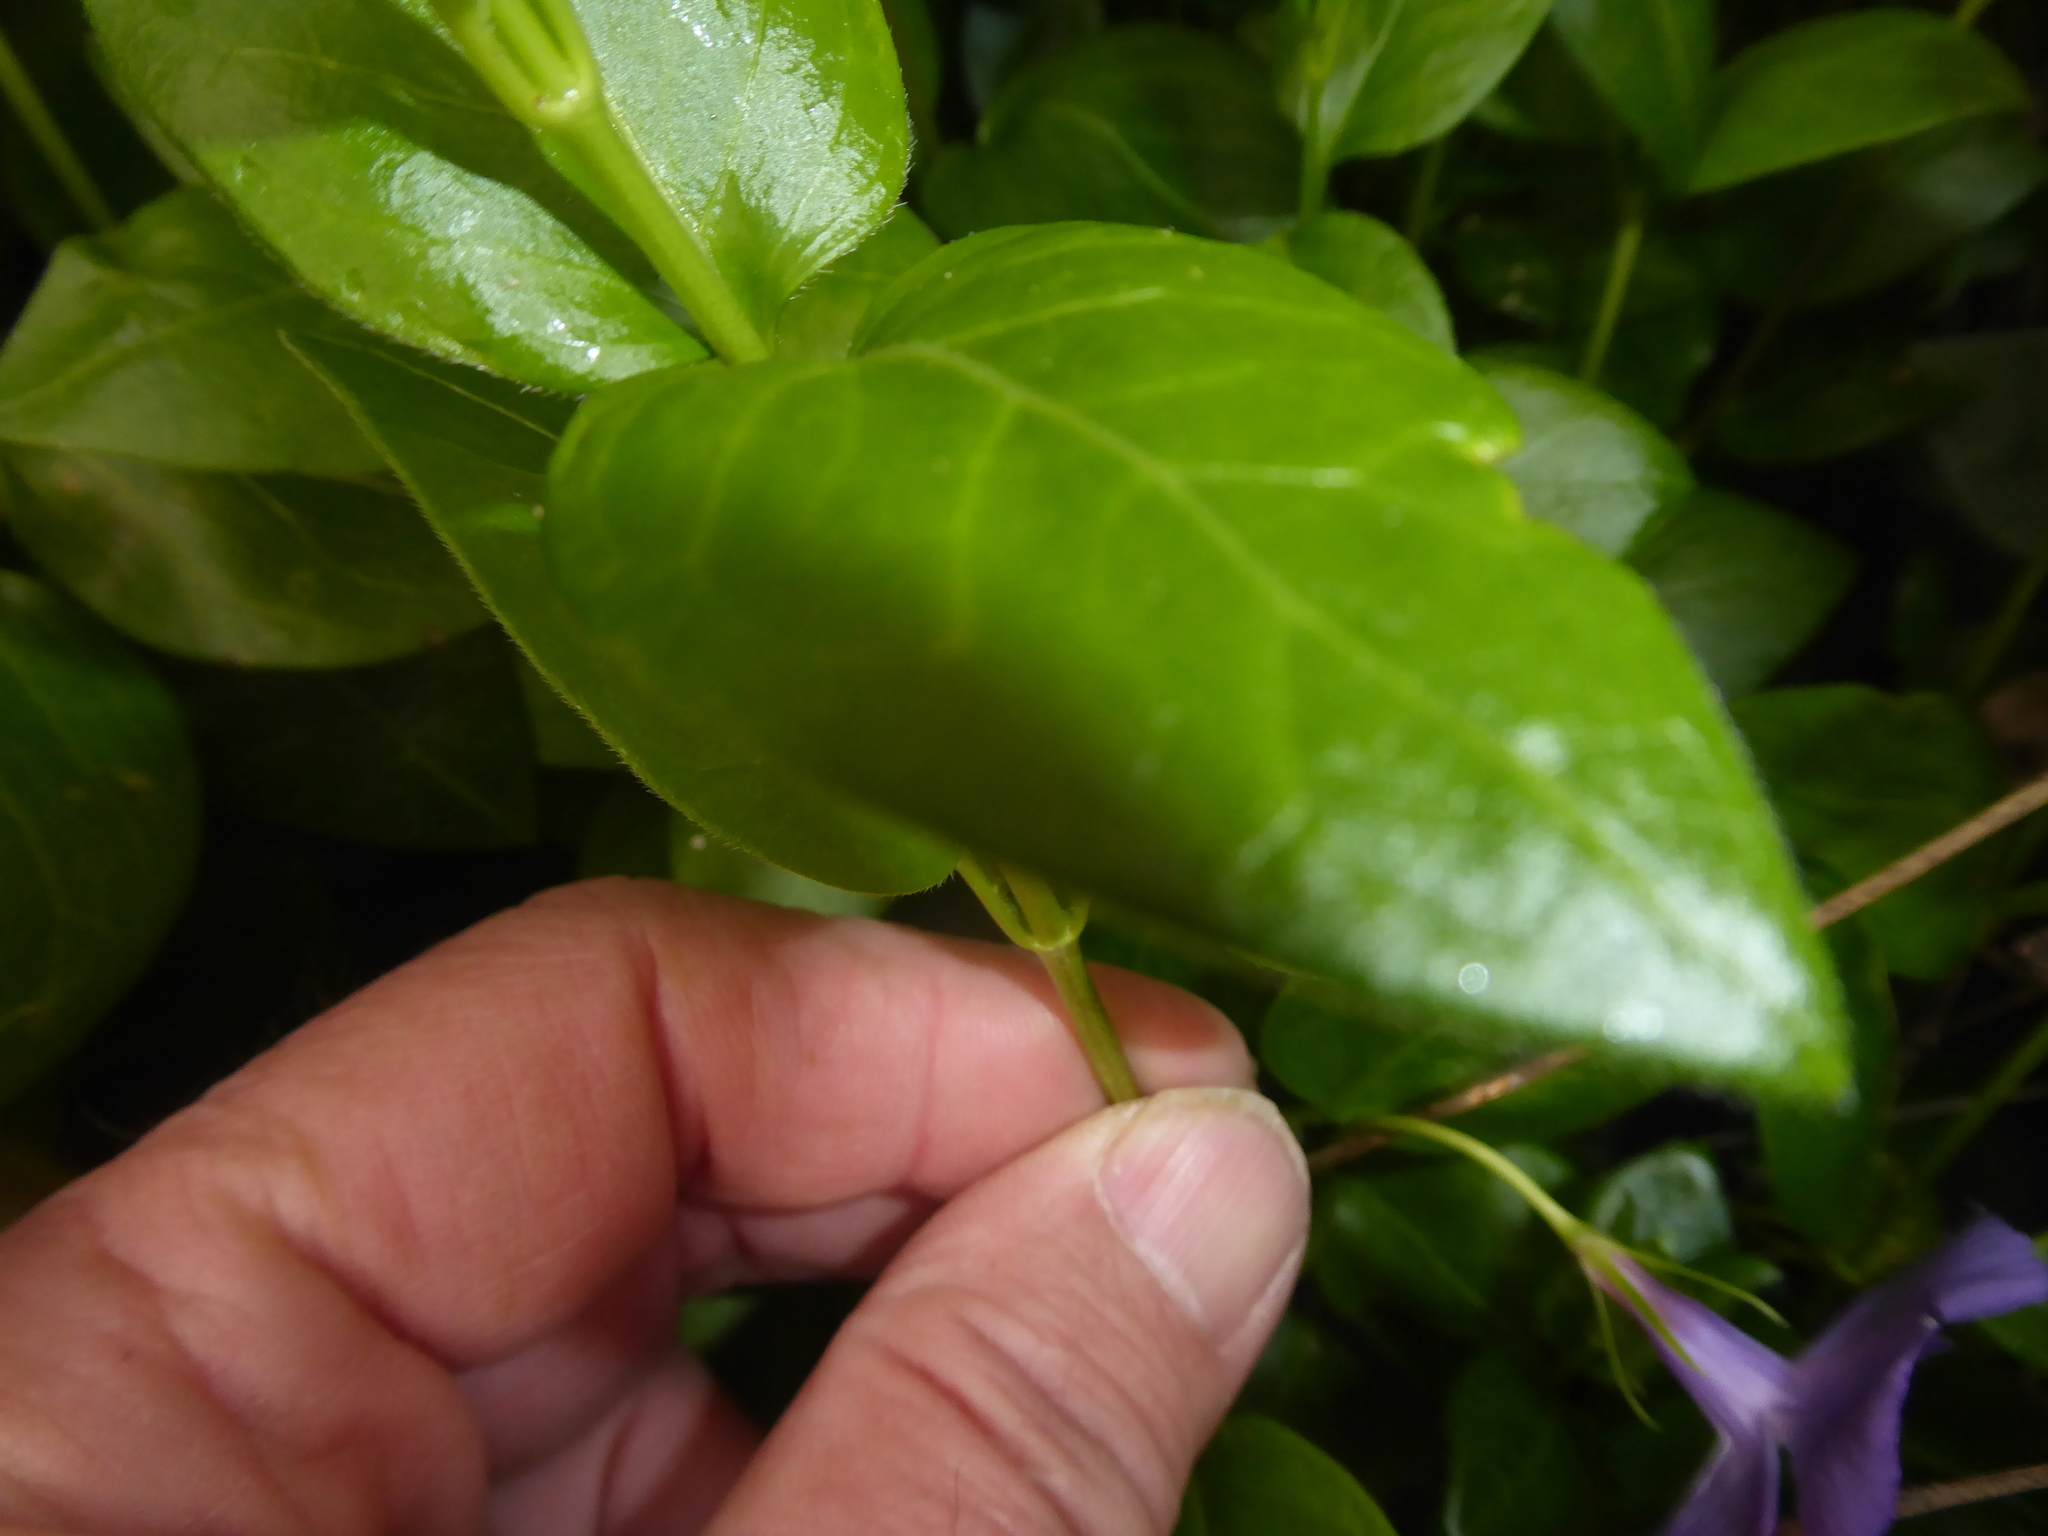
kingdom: Plantae
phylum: Tracheophyta
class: Magnoliopsida
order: Gentianales
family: Apocynaceae
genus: Vinca
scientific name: Vinca major
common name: Greater periwinkle
